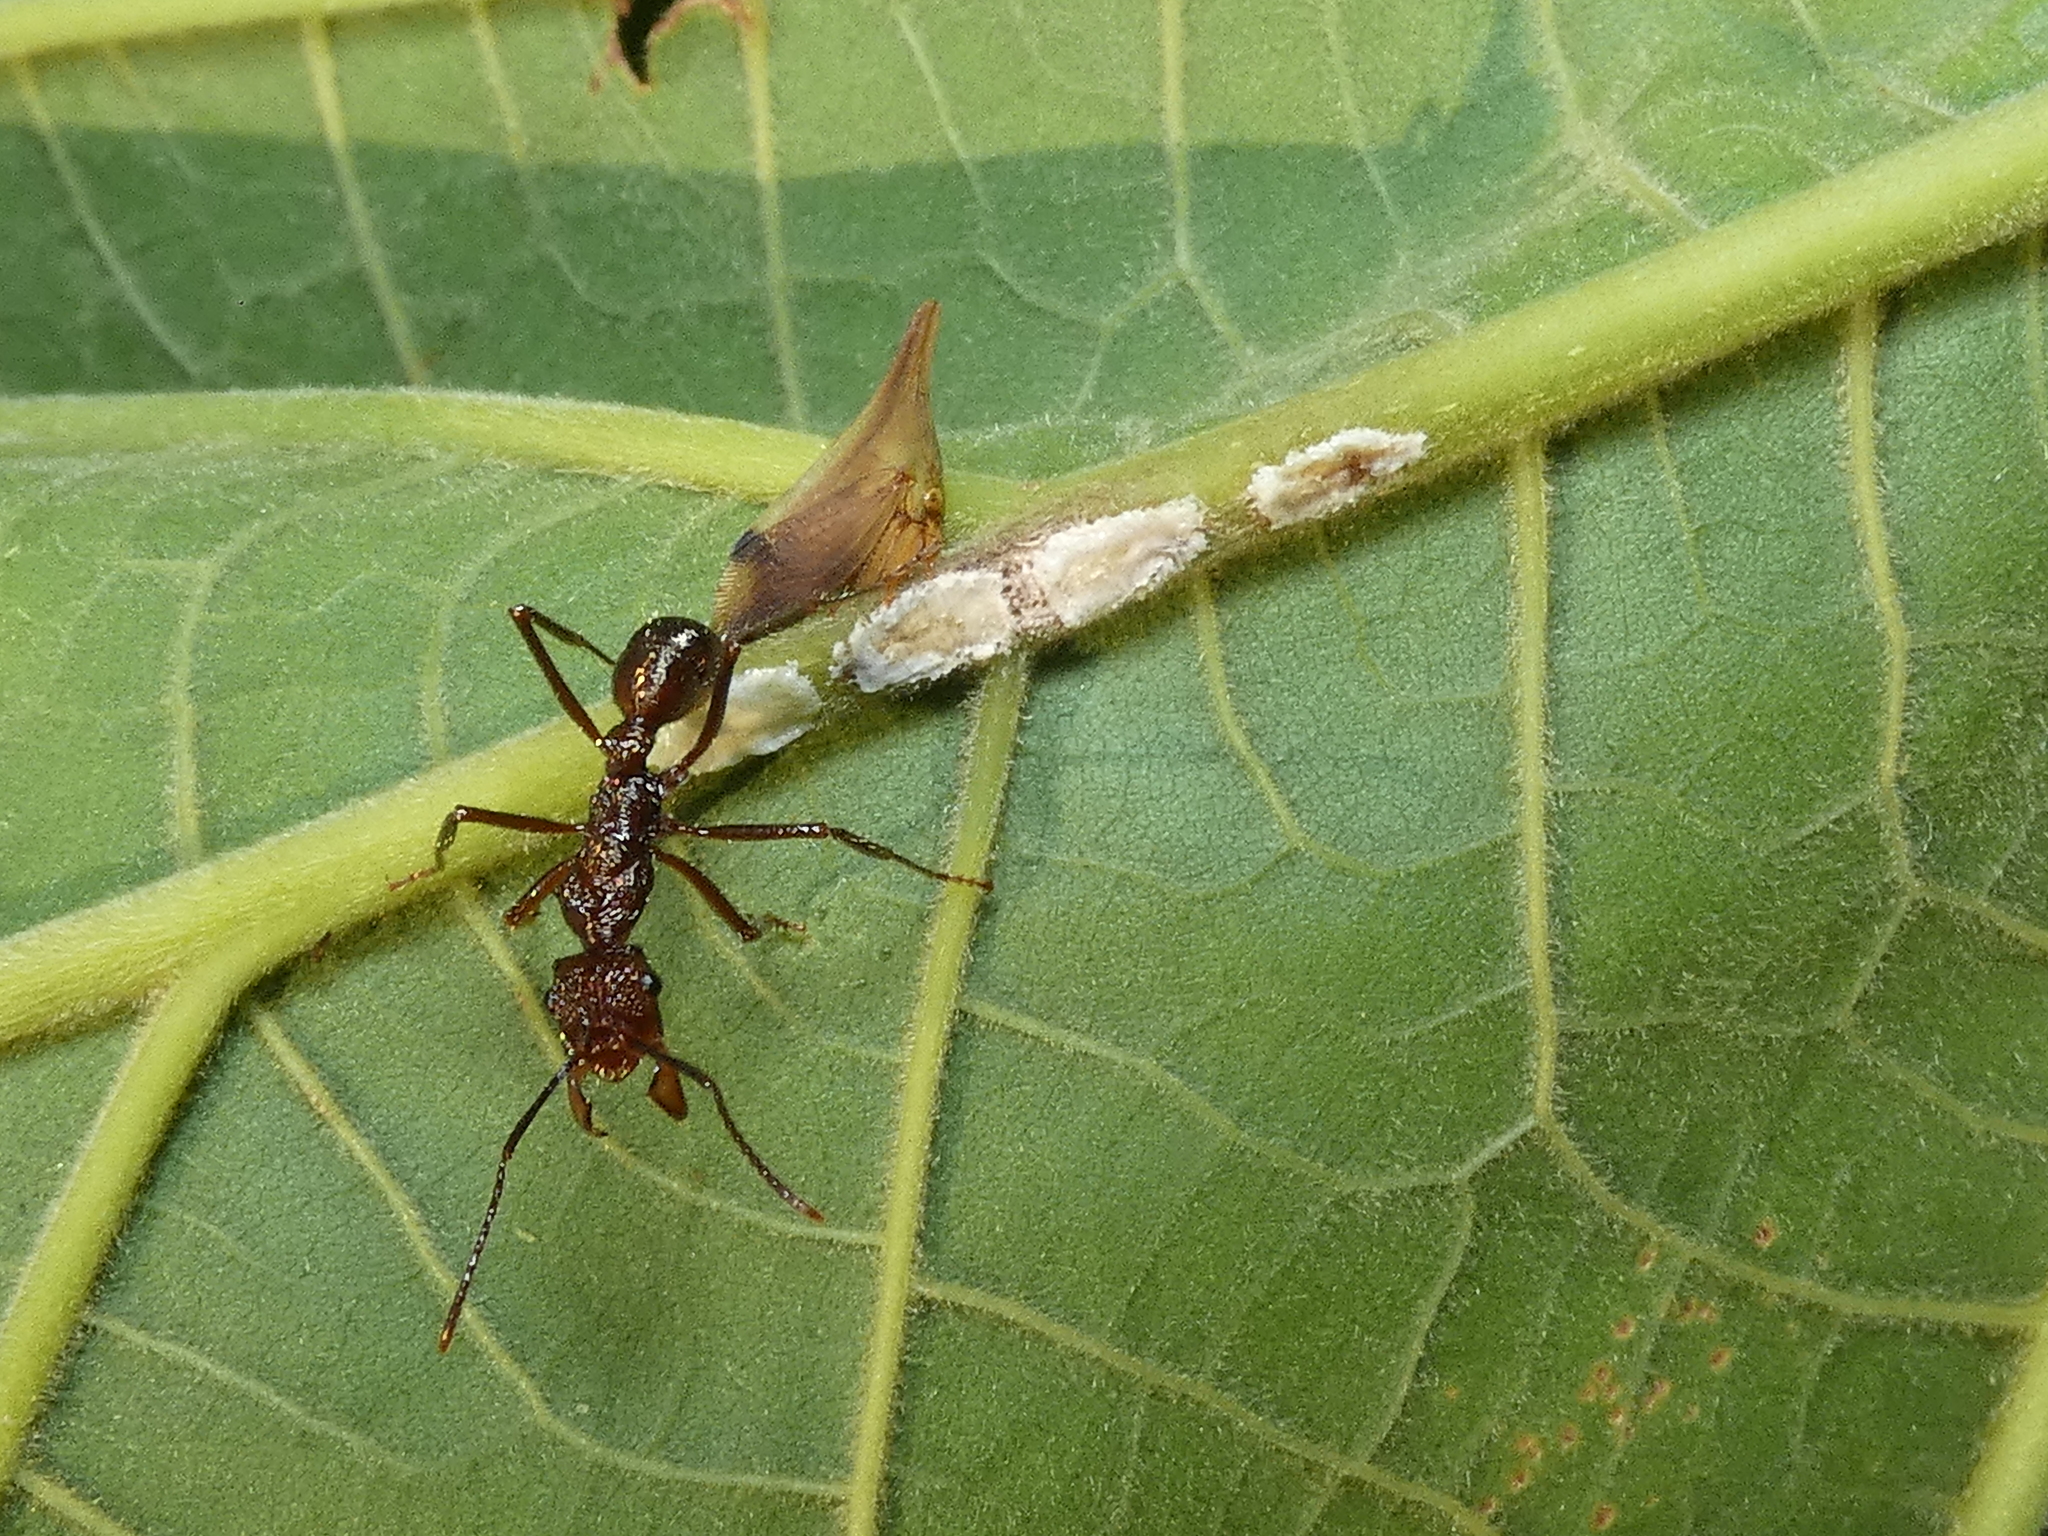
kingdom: Animalia
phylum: Arthropoda
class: Insecta
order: Hemiptera
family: Membracidae
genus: Enchenopa
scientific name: Enchenopa concolor
